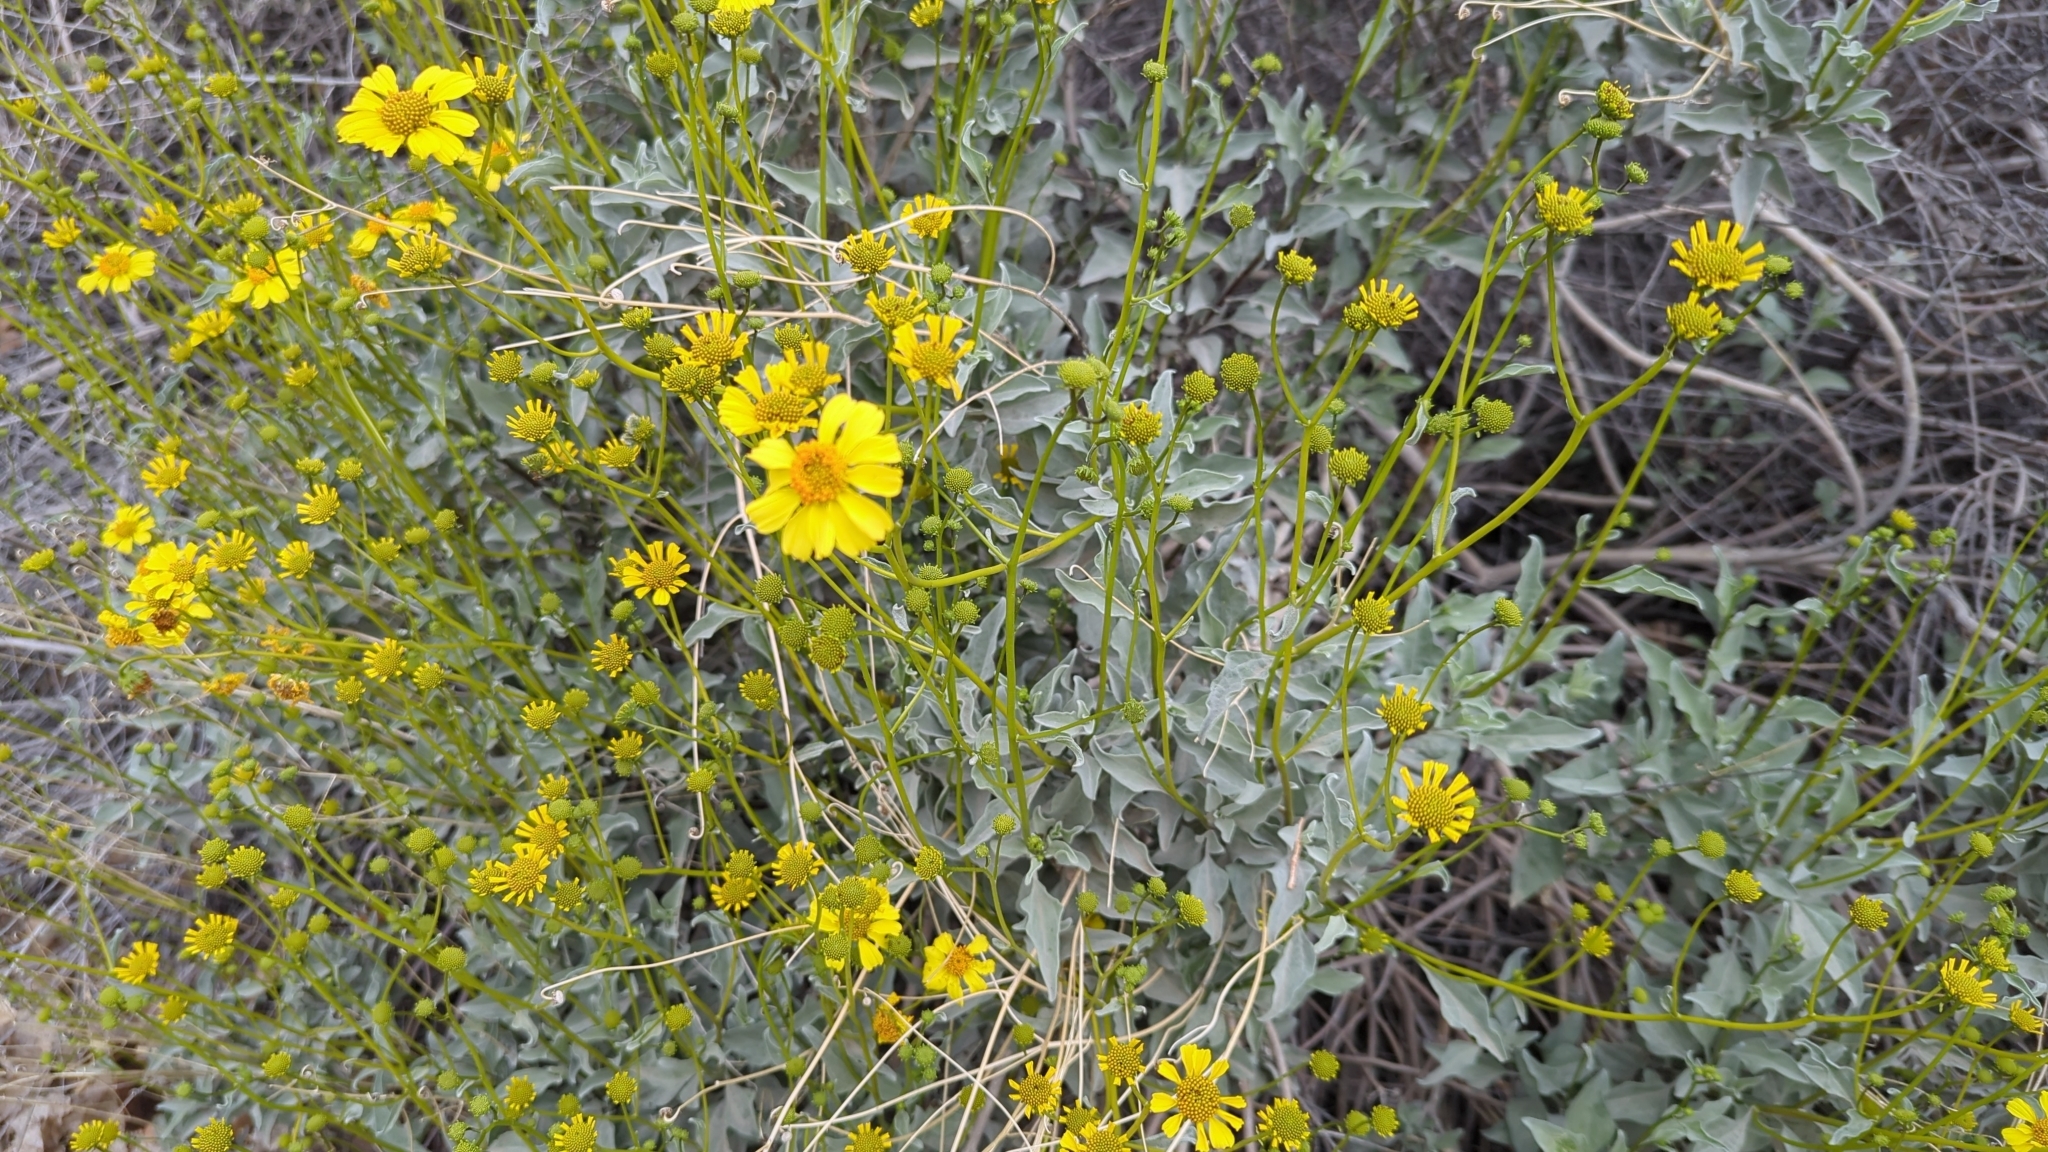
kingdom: Plantae
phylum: Tracheophyta
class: Magnoliopsida
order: Asterales
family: Asteraceae
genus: Encelia
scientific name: Encelia farinosa
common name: Brittlebush
